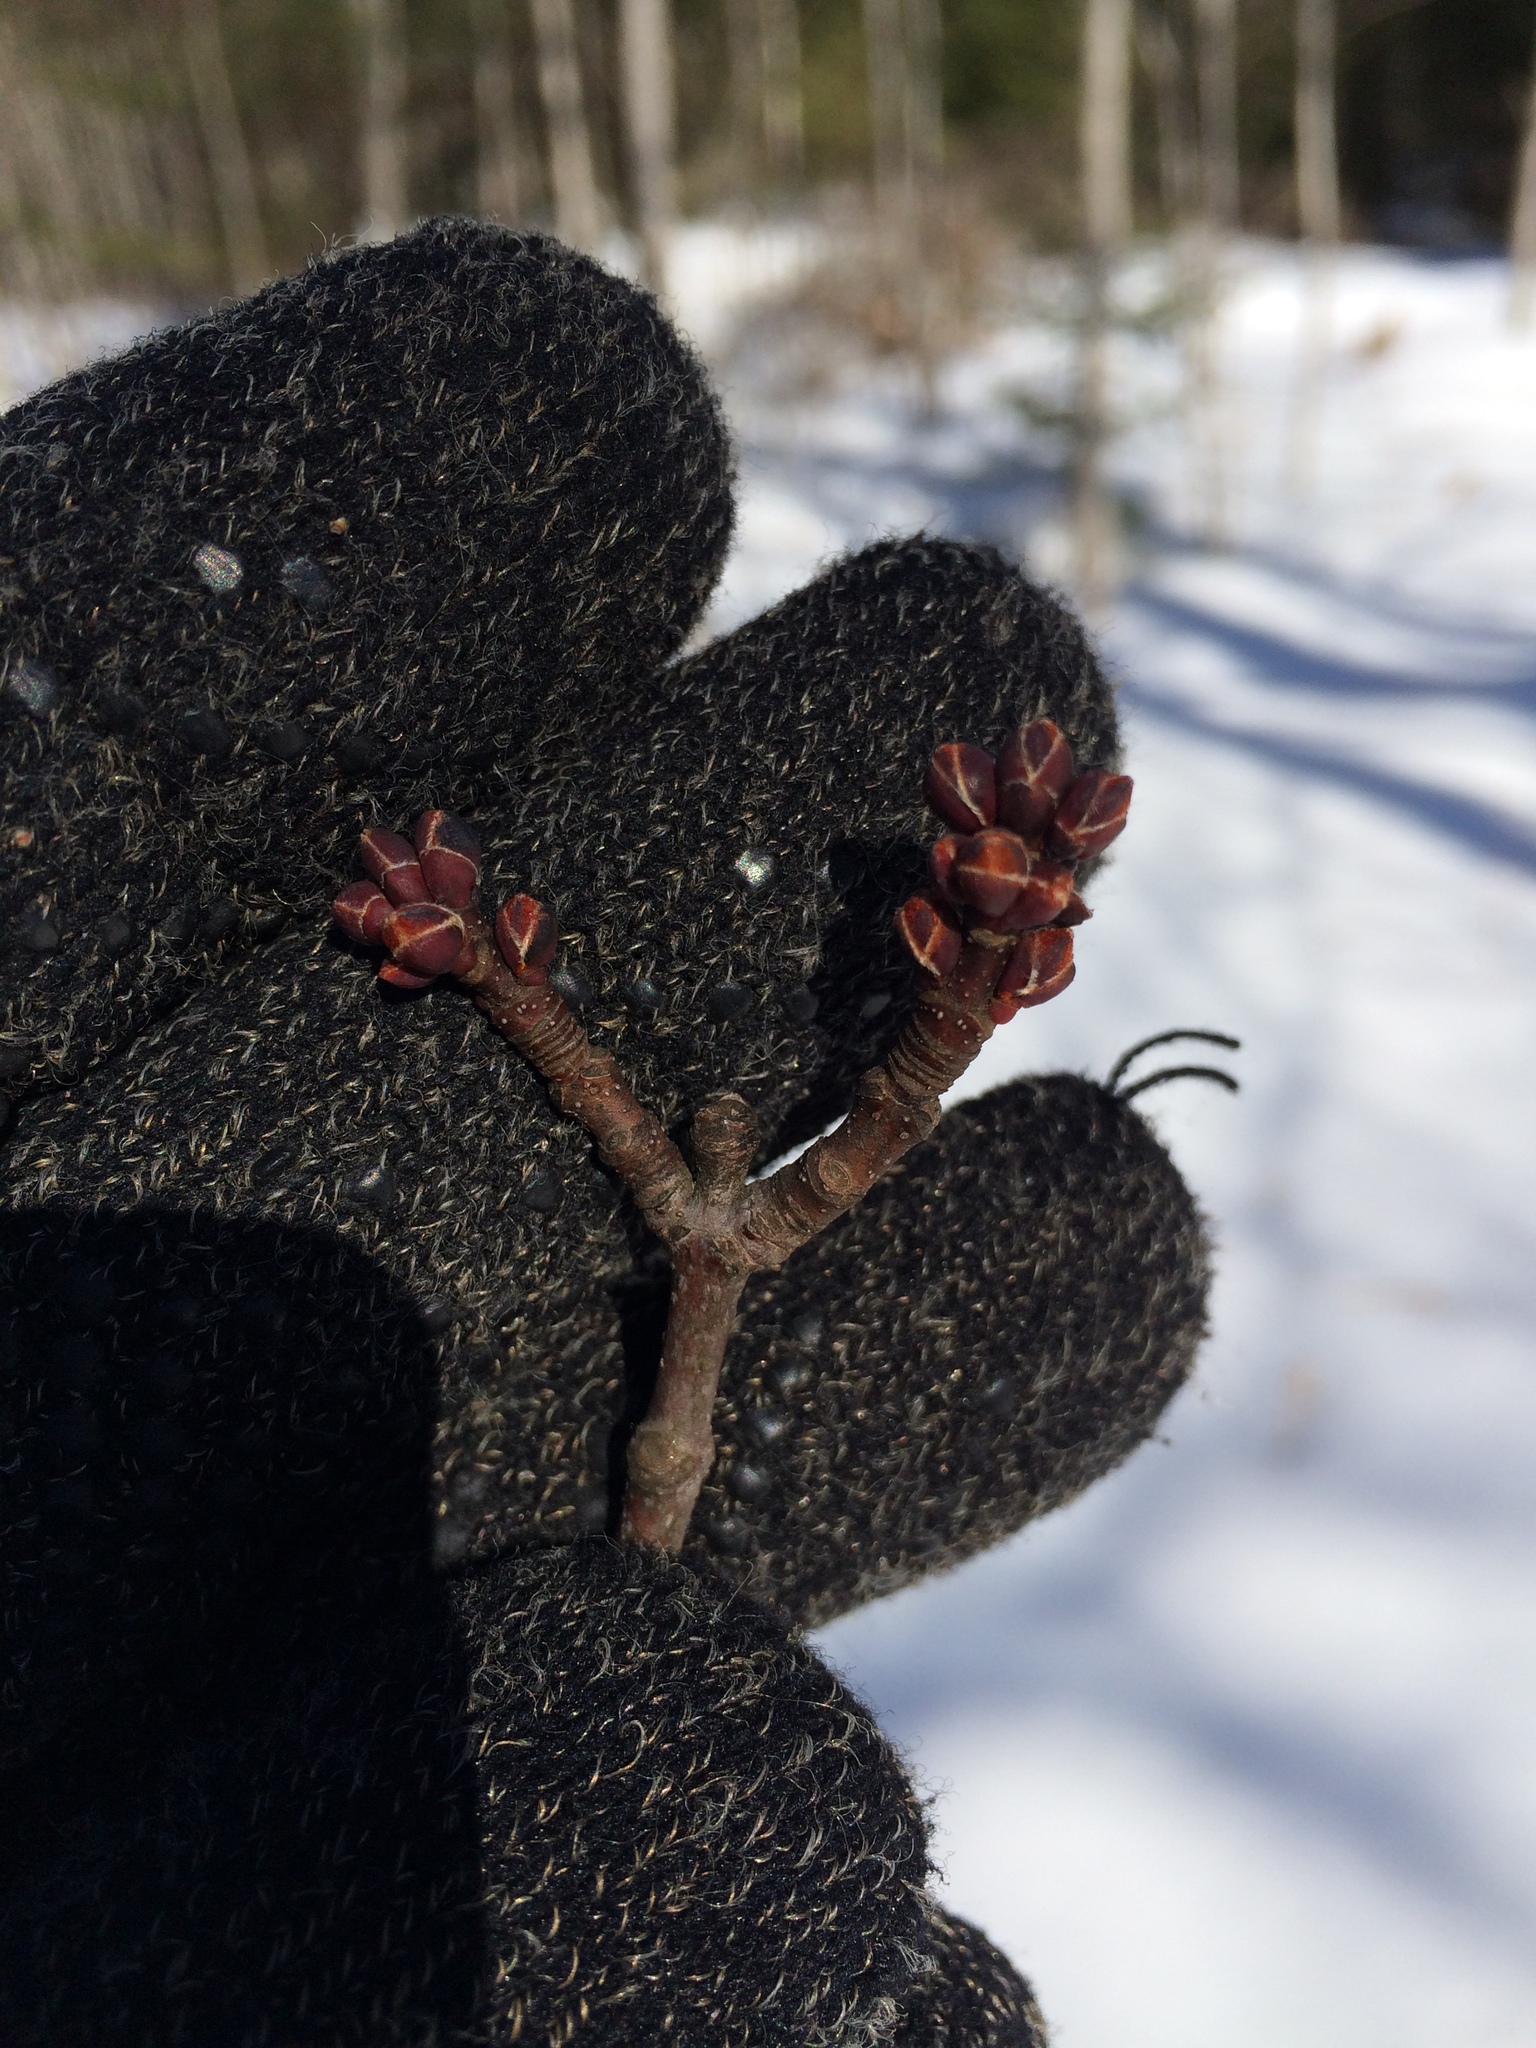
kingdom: Plantae
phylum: Tracheophyta
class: Magnoliopsida
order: Sapindales
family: Sapindaceae
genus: Acer
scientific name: Acer rubrum
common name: Red maple
